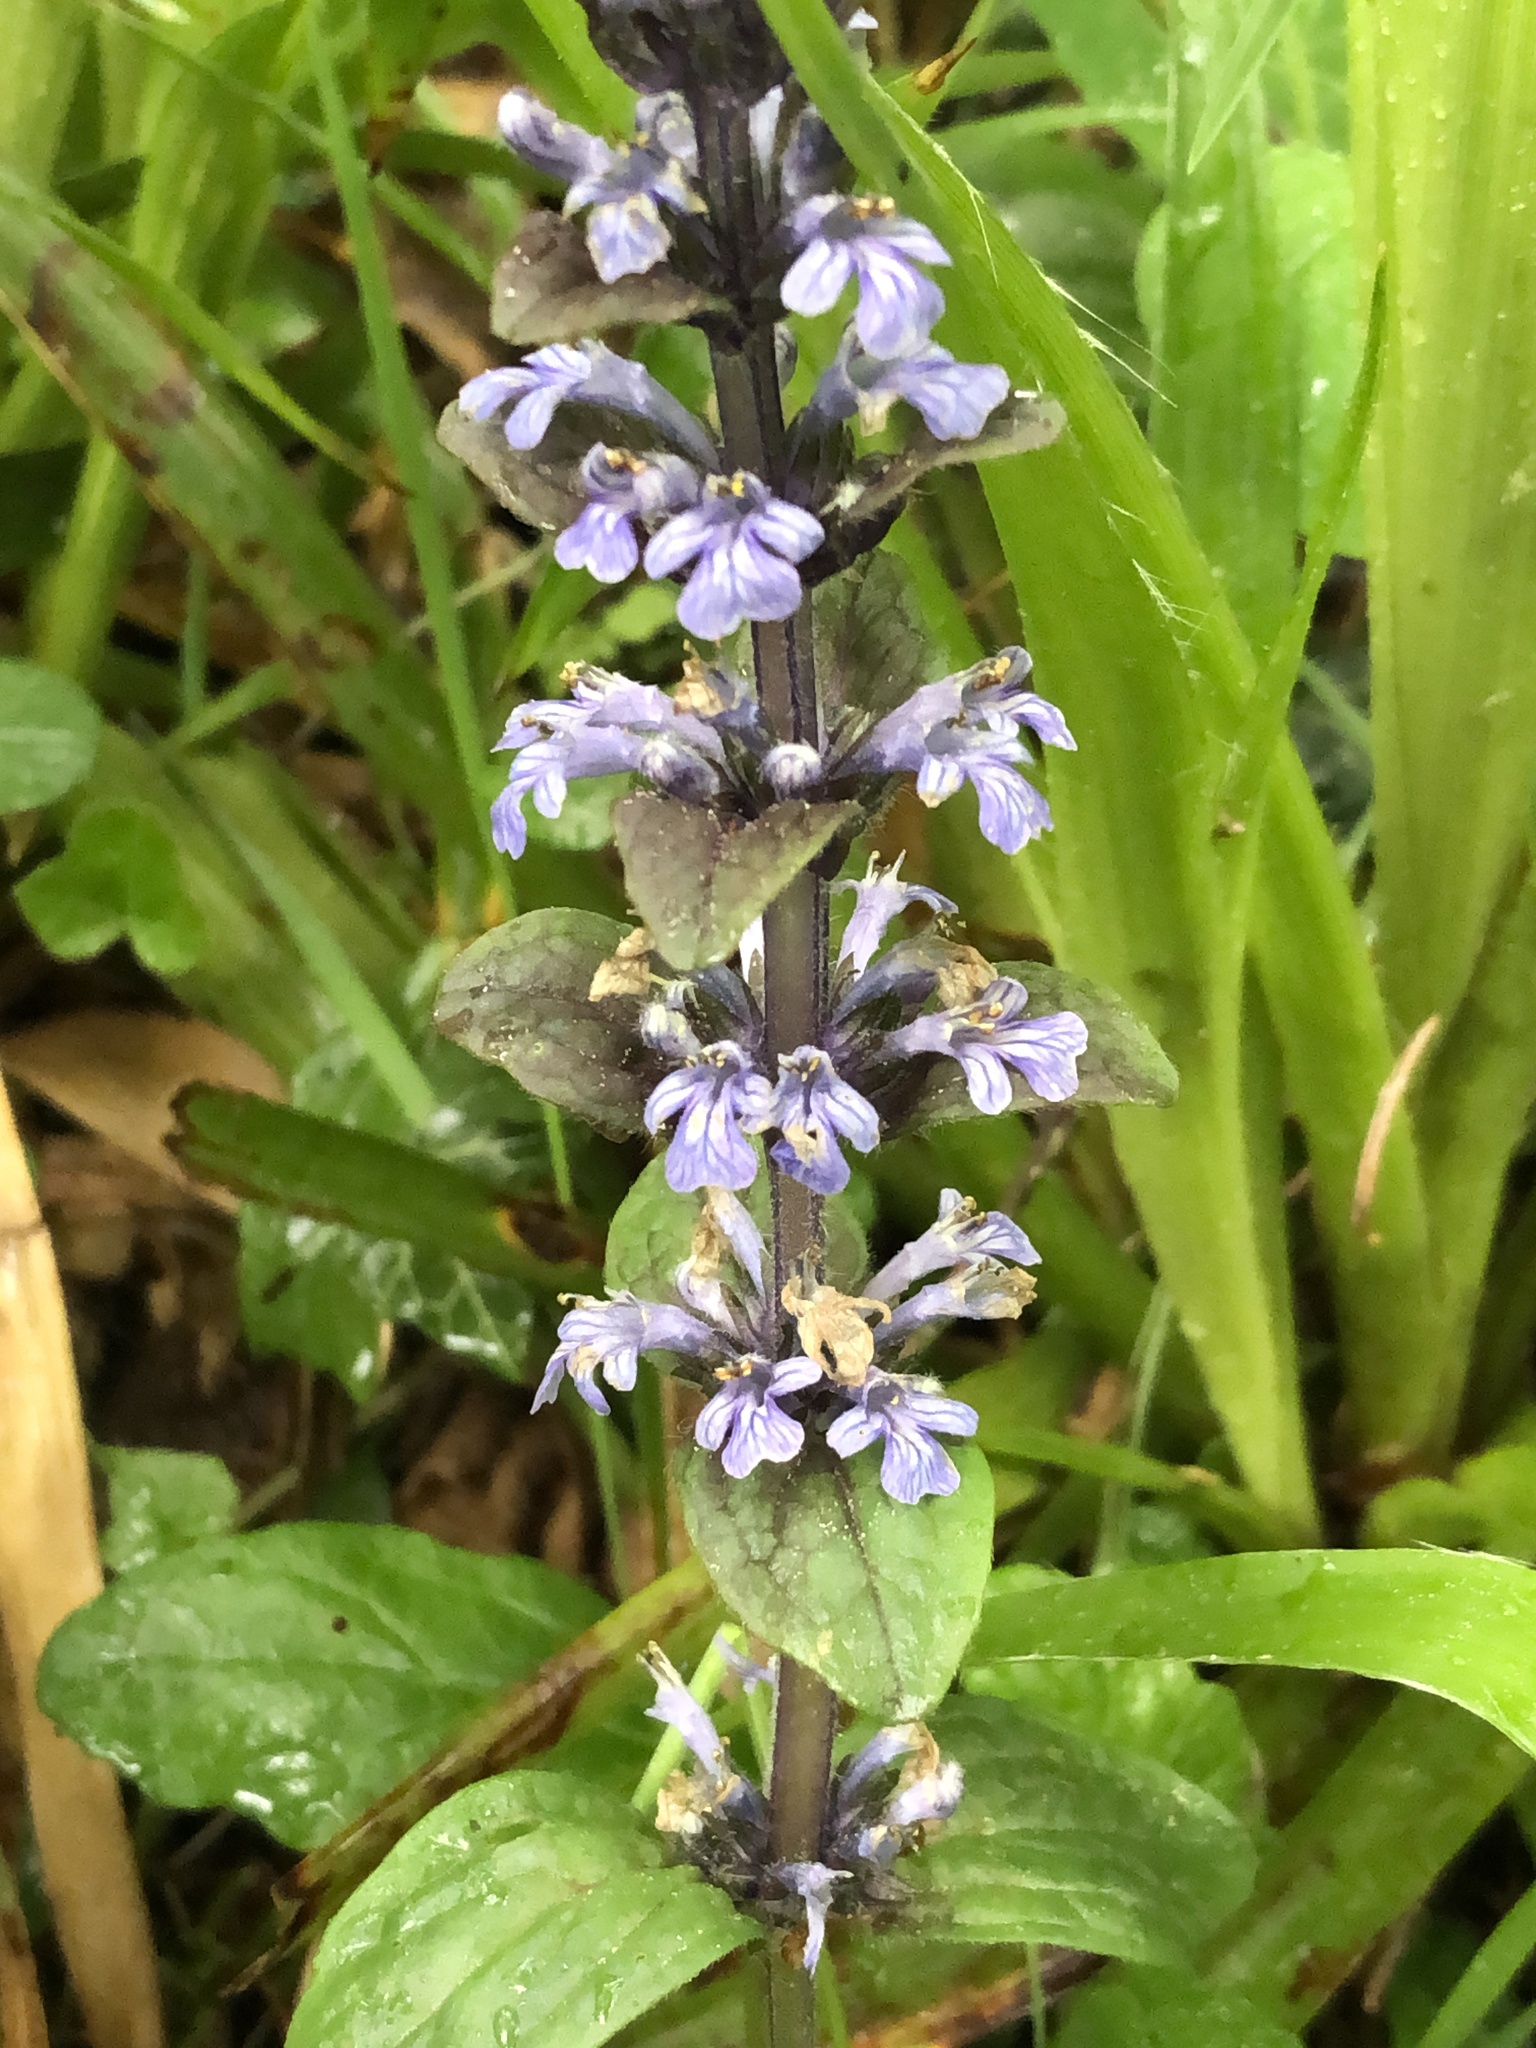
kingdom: Plantae
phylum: Tracheophyta
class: Magnoliopsida
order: Lamiales
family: Lamiaceae
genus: Ajuga
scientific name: Ajuga reptans
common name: Bugle
